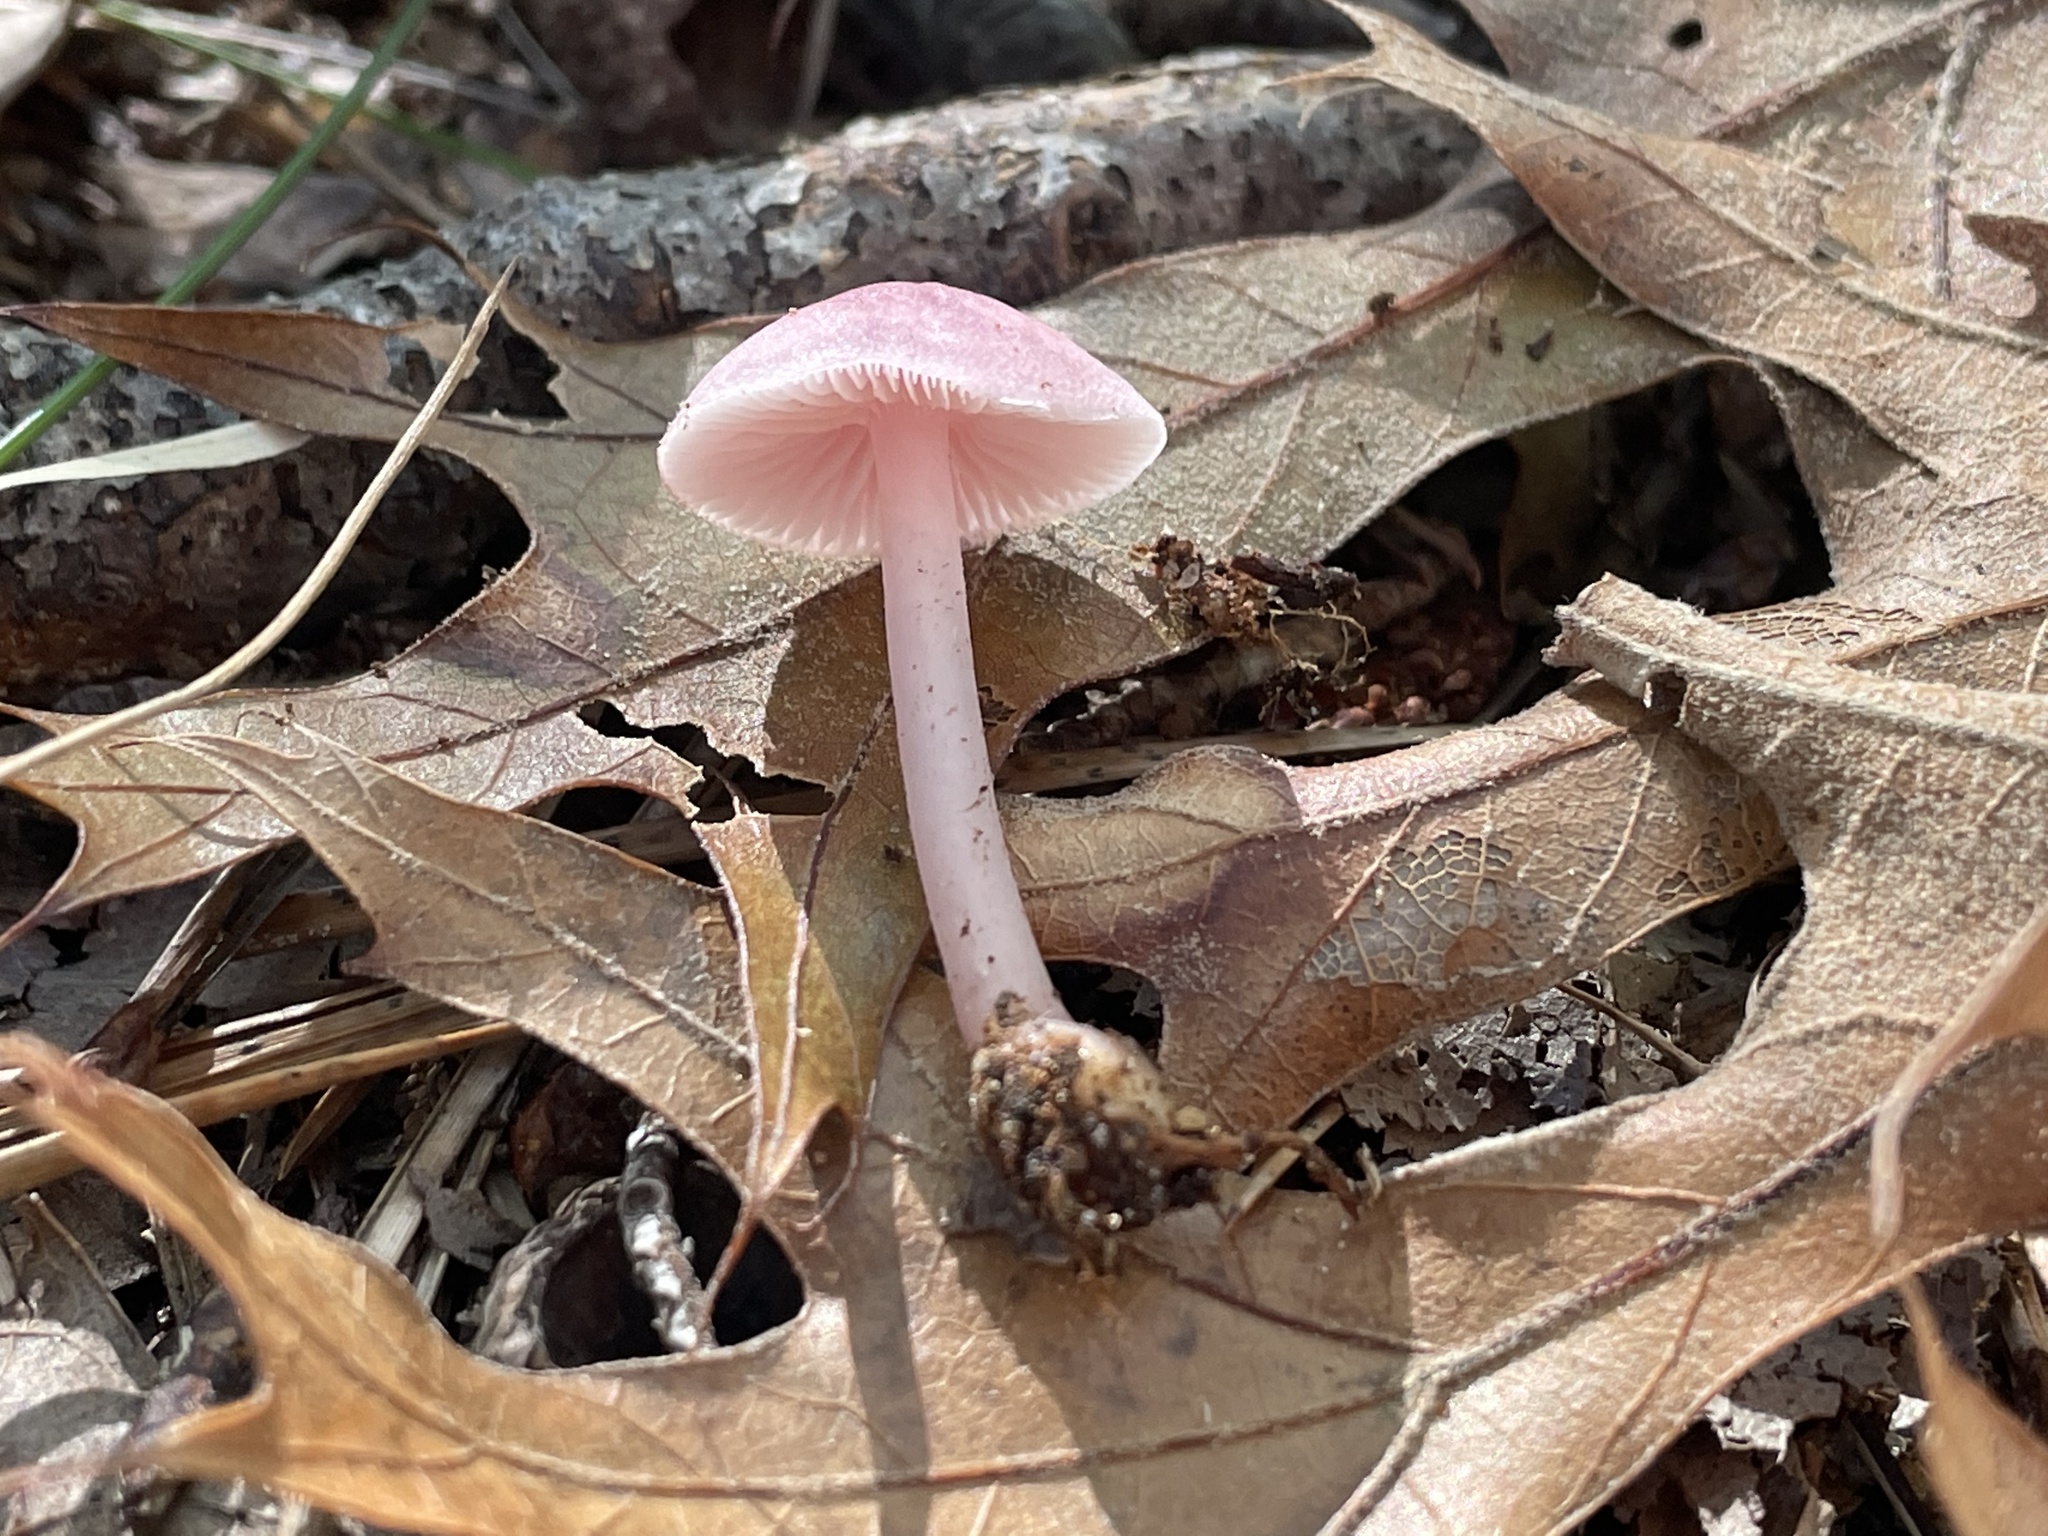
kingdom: Fungi
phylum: Basidiomycota
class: Agaricomycetes
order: Agaricales
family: Mycenaceae
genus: Mycena
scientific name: Mycena pura
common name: Lilac bonnet
